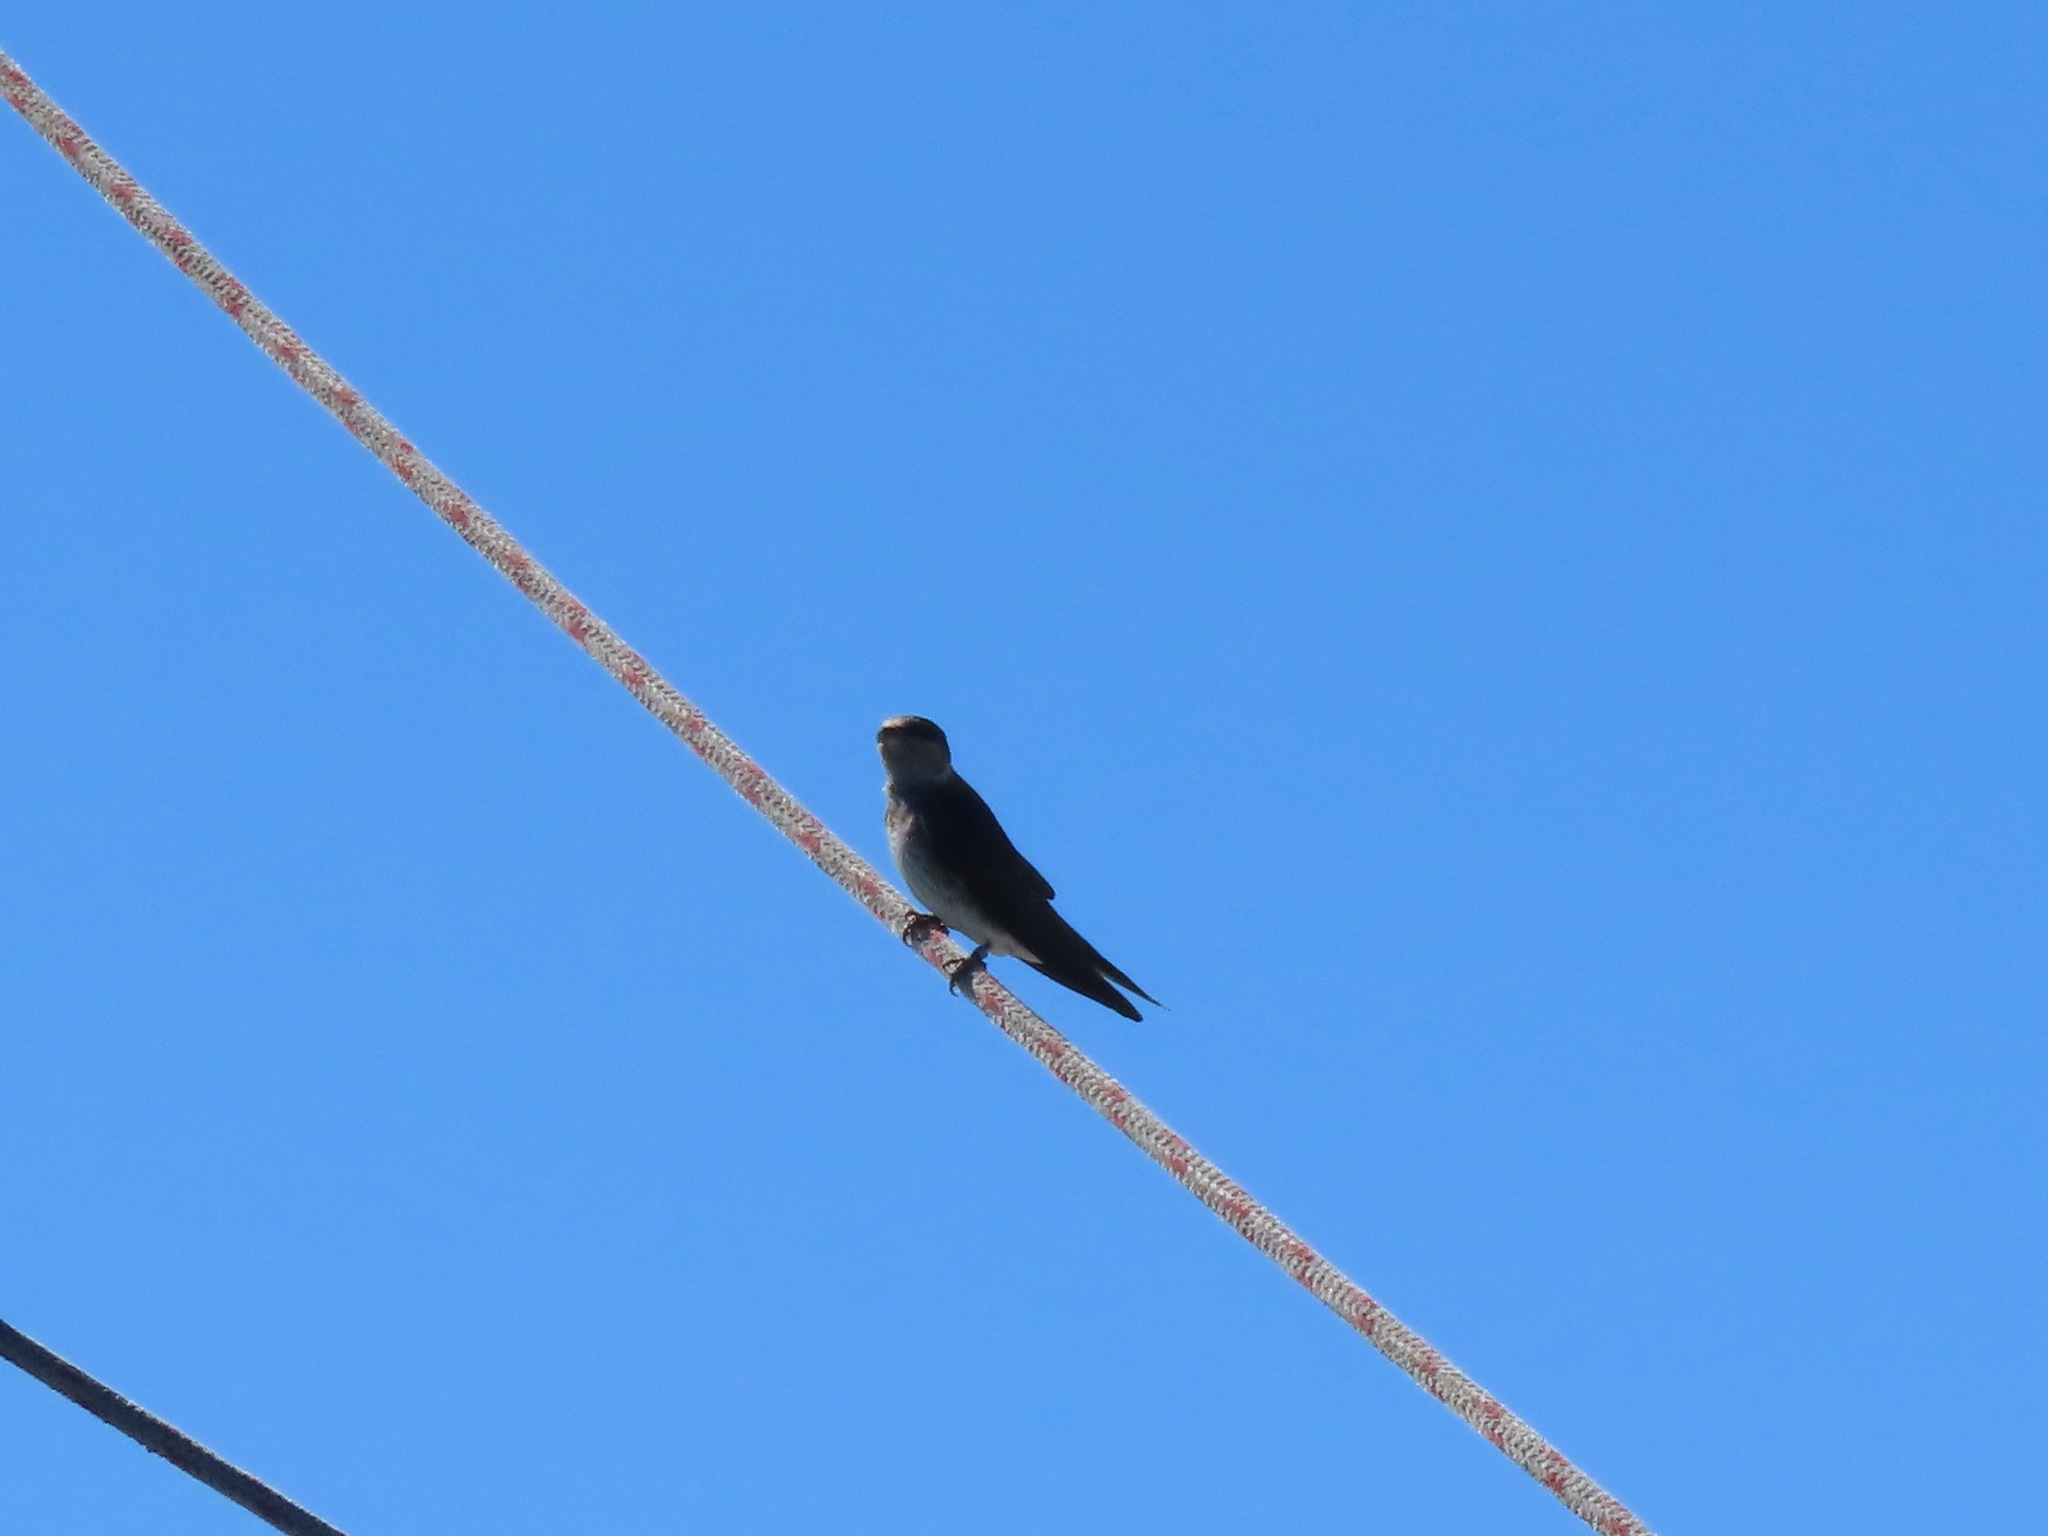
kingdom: Animalia
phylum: Chordata
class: Aves
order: Passeriformes
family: Hirundinidae
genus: Progne
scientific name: Progne subis
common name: Purple martin
